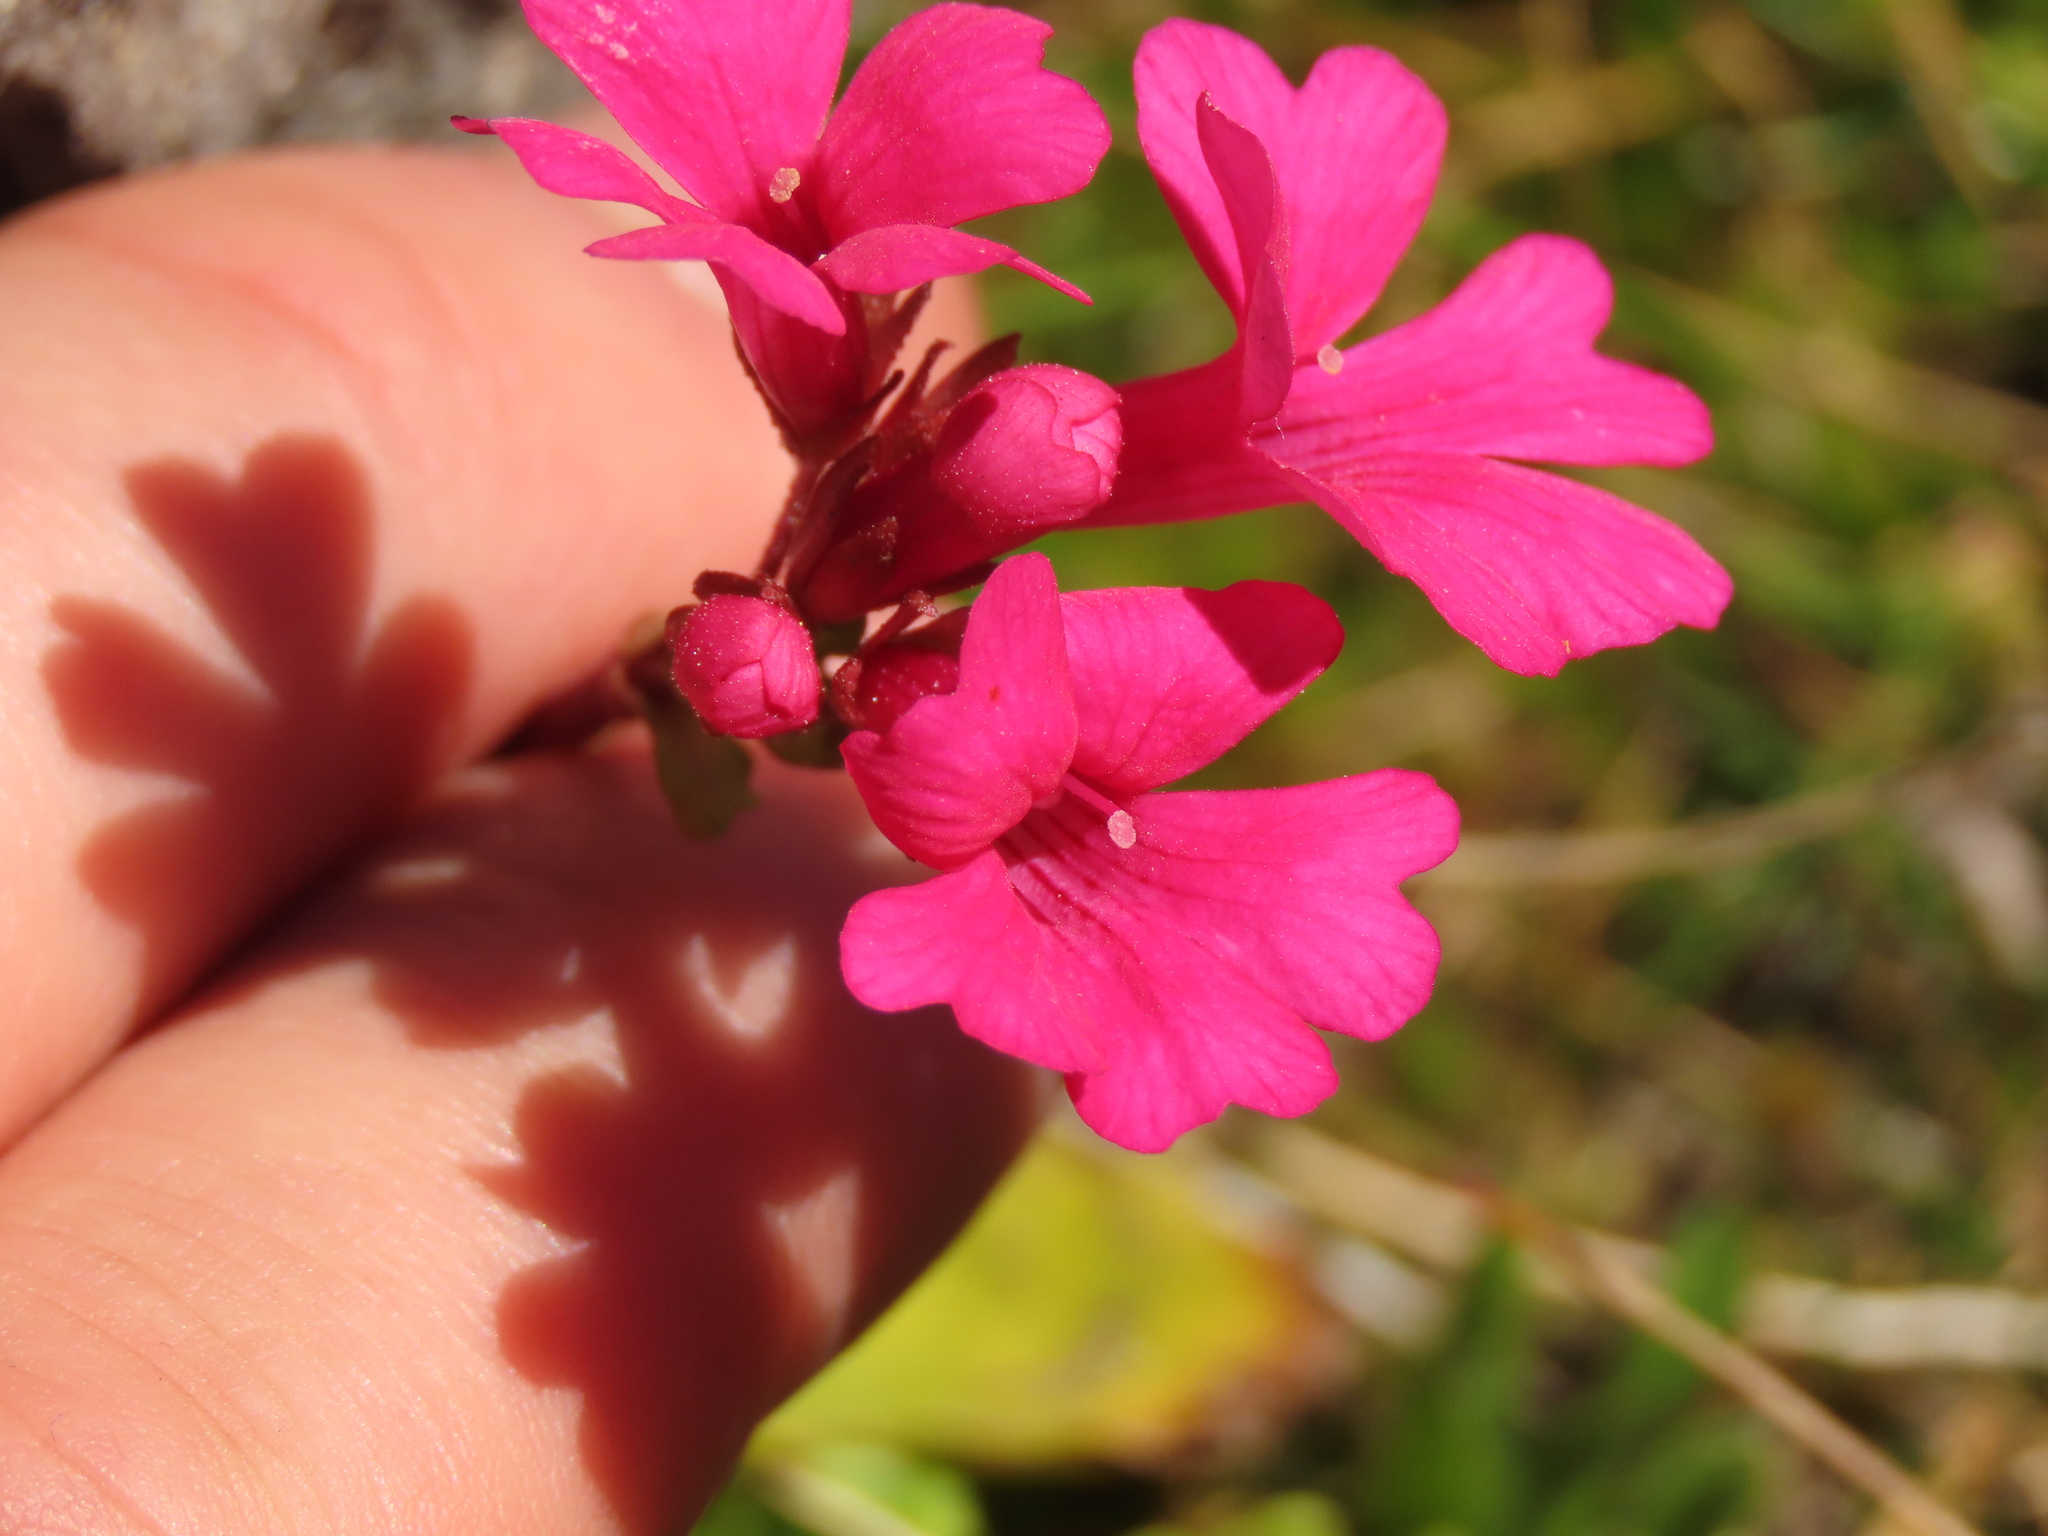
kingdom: Plantae
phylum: Tracheophyta
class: Magnoliopsida
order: Lamiales
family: Plantaginaceae
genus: Ourisia
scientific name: Ourisia alpina
